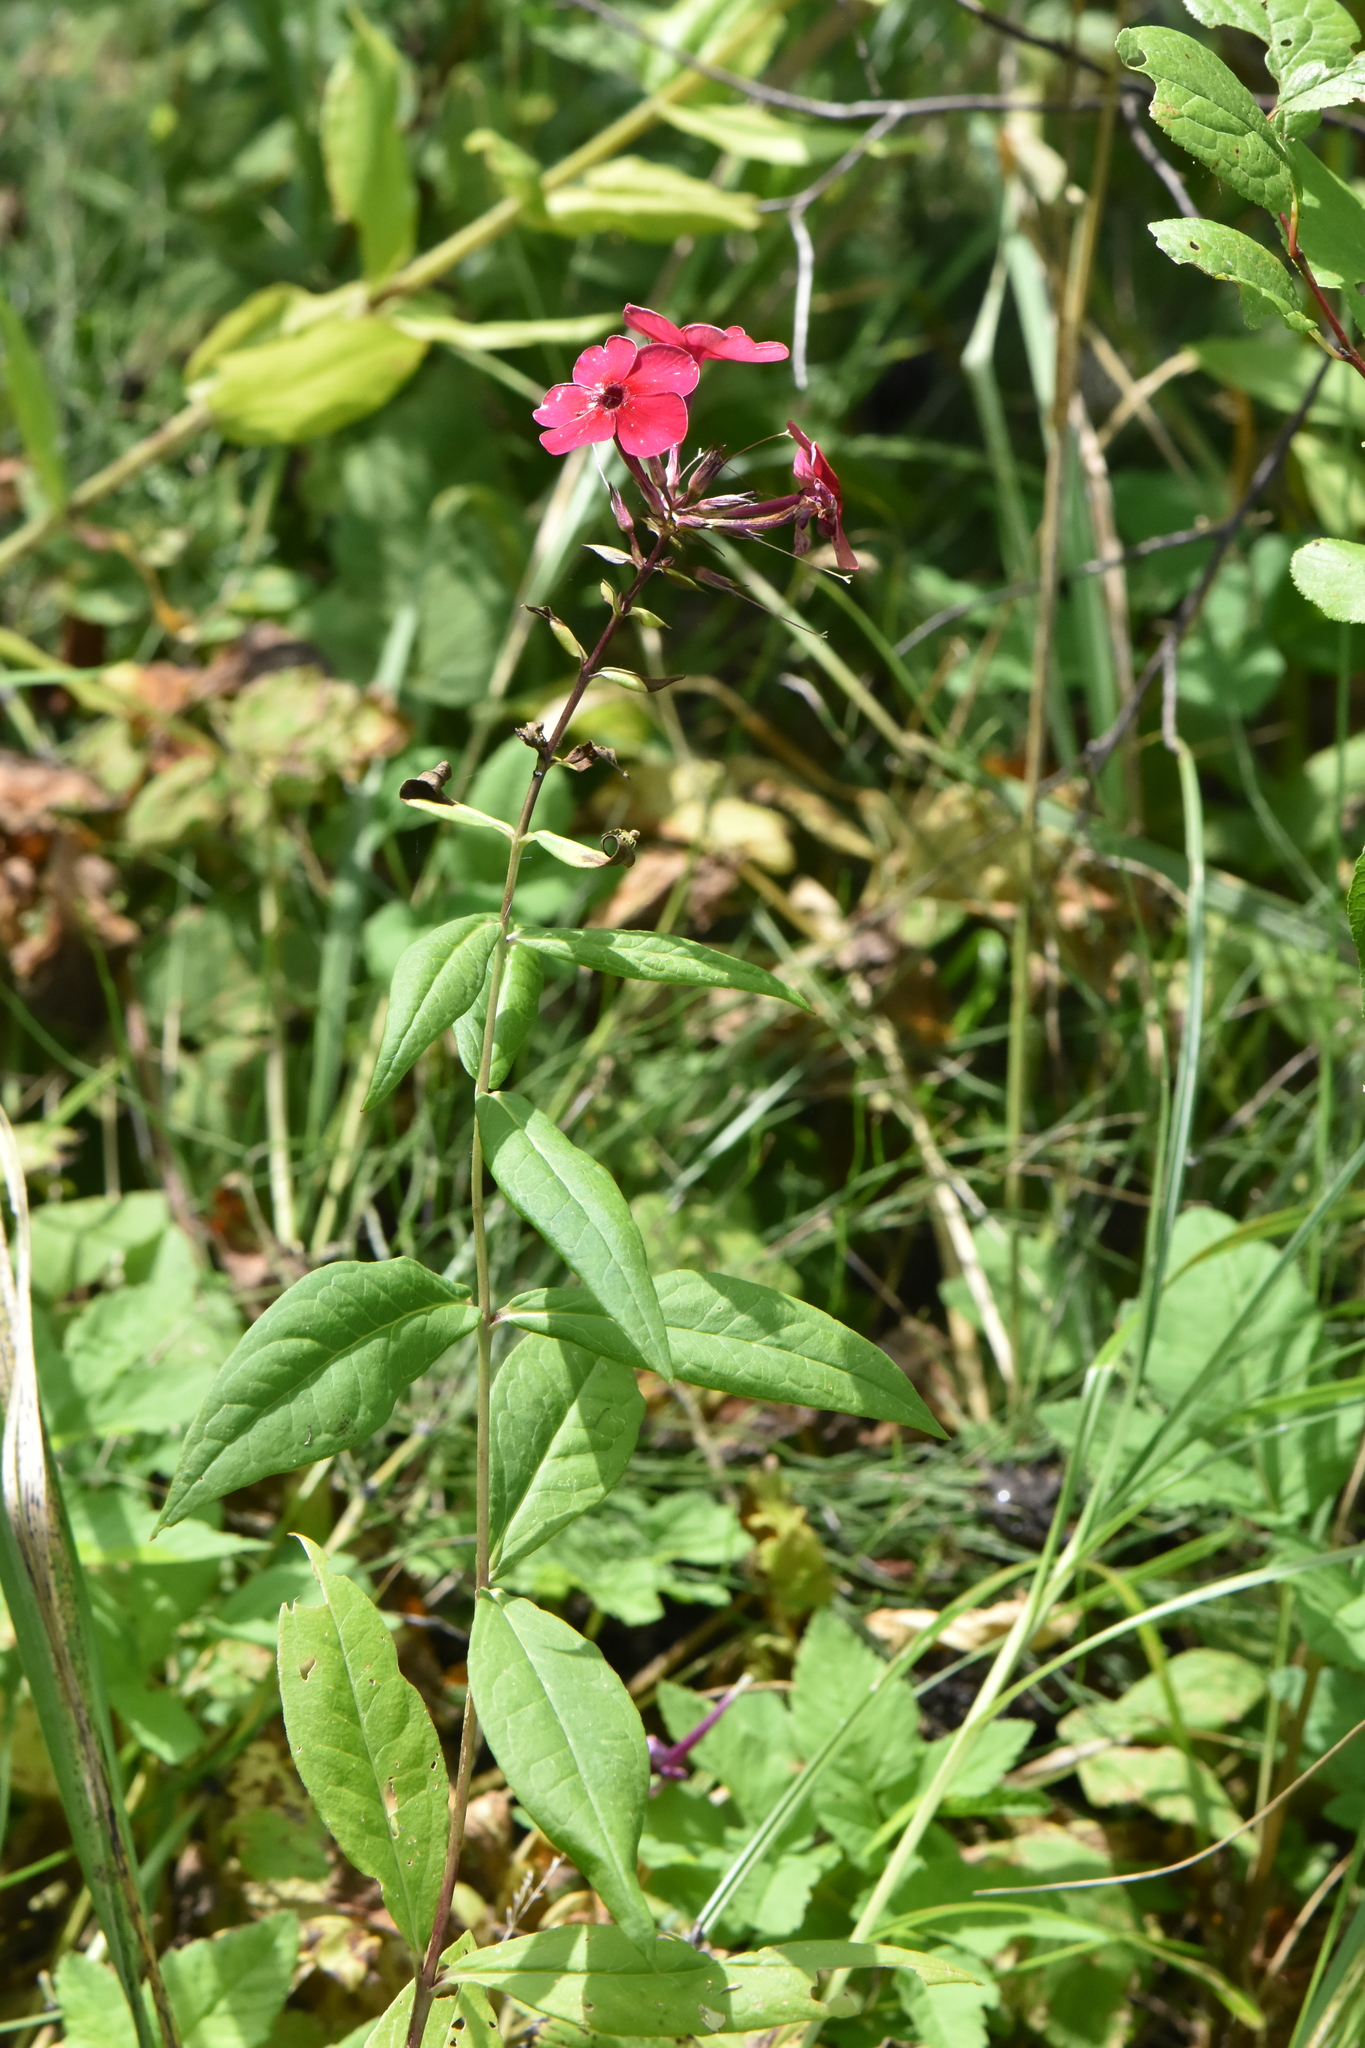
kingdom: Plantae
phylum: Tracheophyta
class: Magnoliopsida
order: Ericales
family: Polemoniaceae
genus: Phlox
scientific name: Phlox paniculata
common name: Fall phlox
